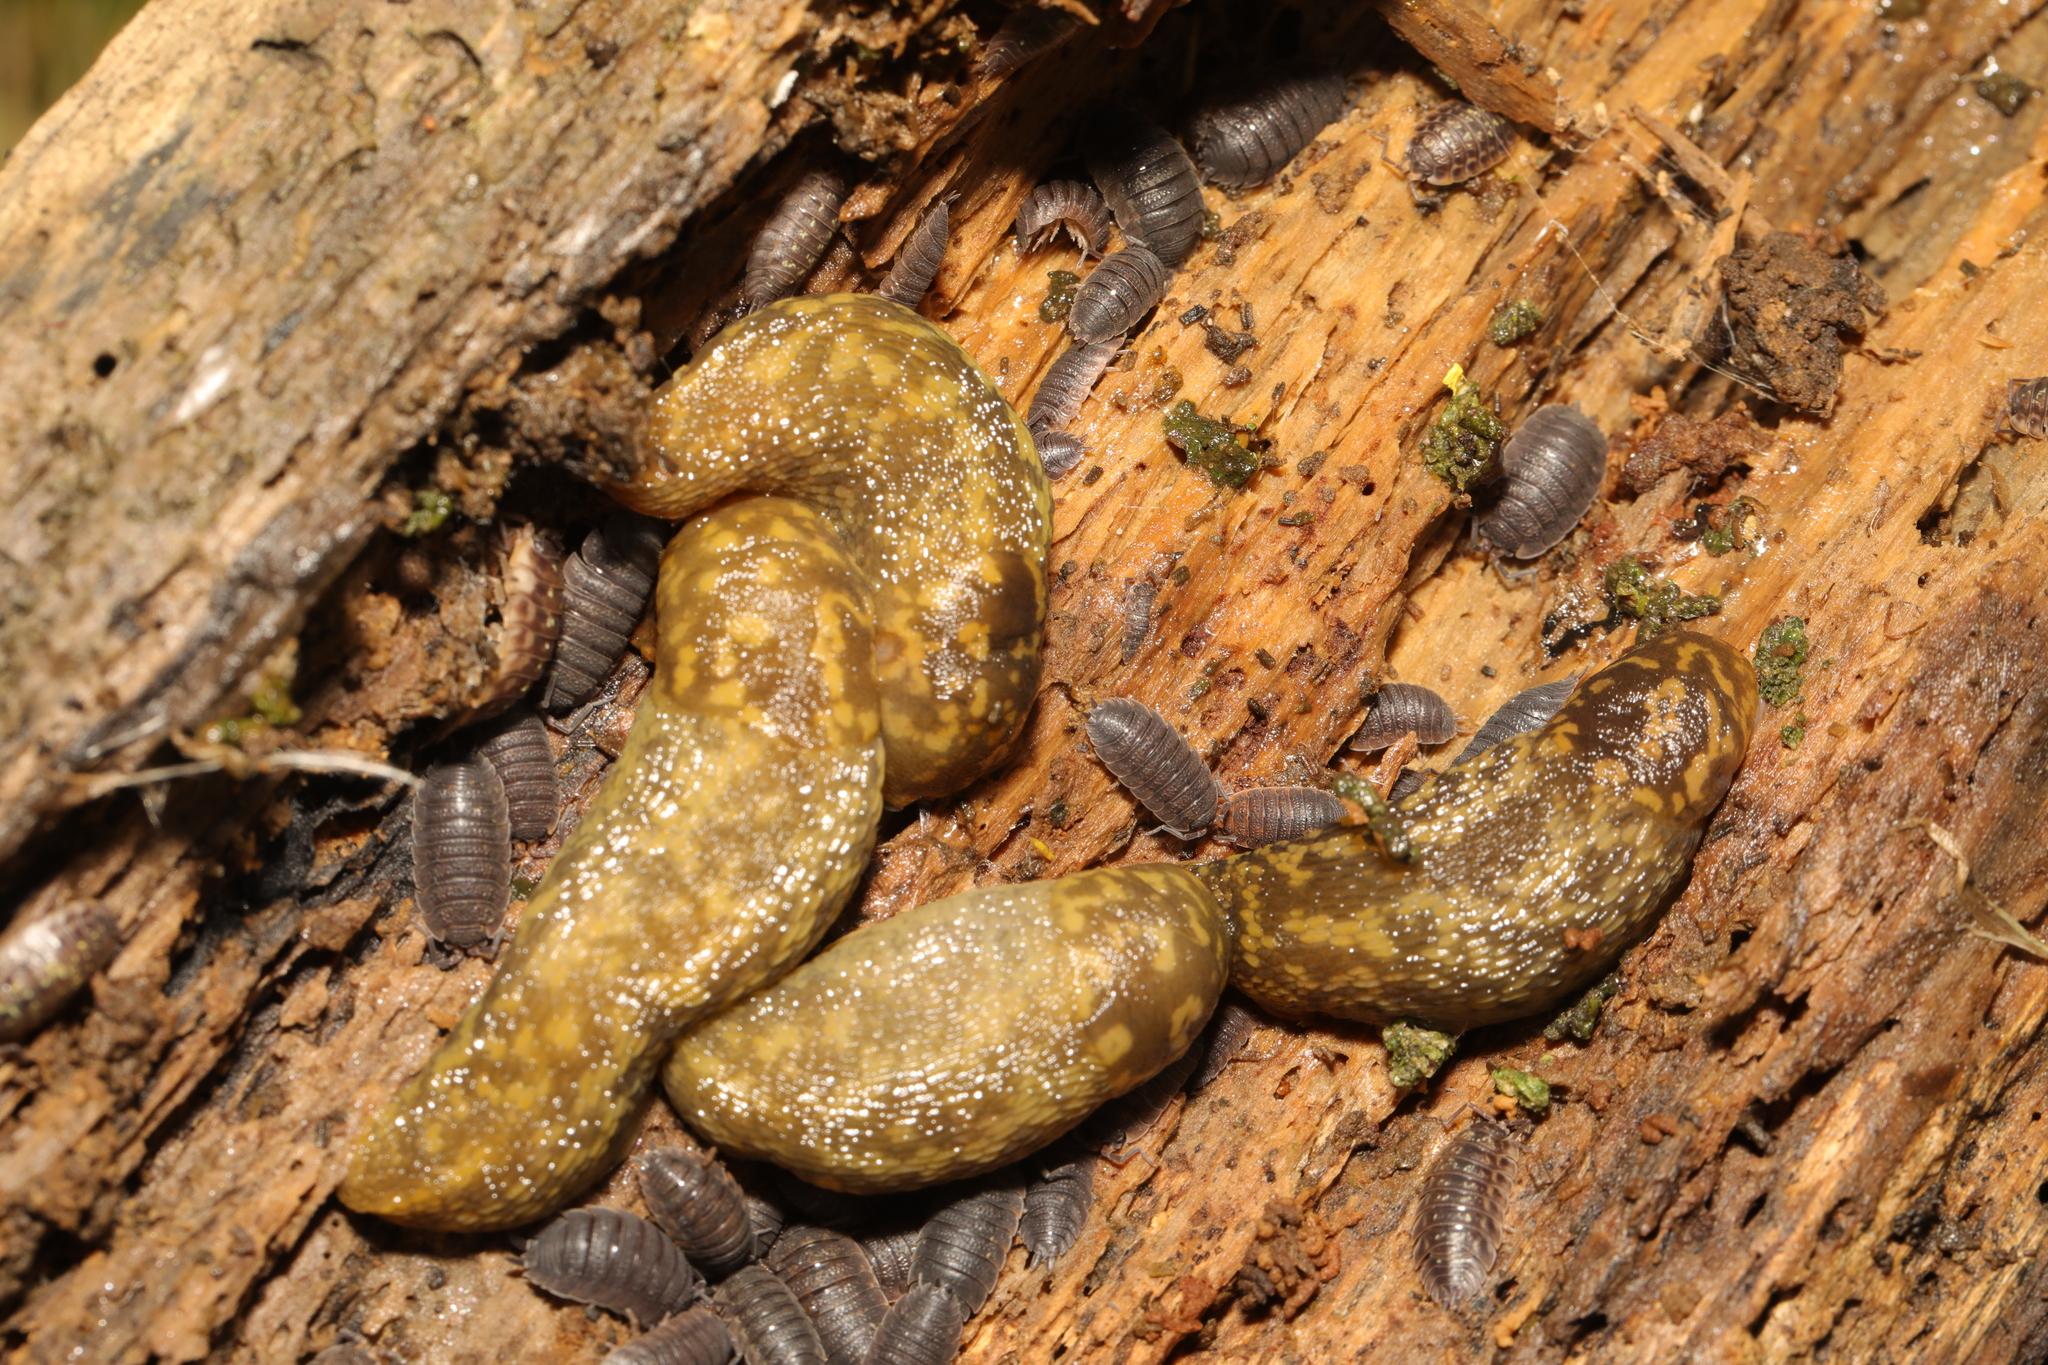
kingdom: Animalia
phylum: Mollusca
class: Gastropoda
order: Stylommatophora
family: Limacidae
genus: Limacus
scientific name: Limacus maculatus
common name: Irish yellow slug
